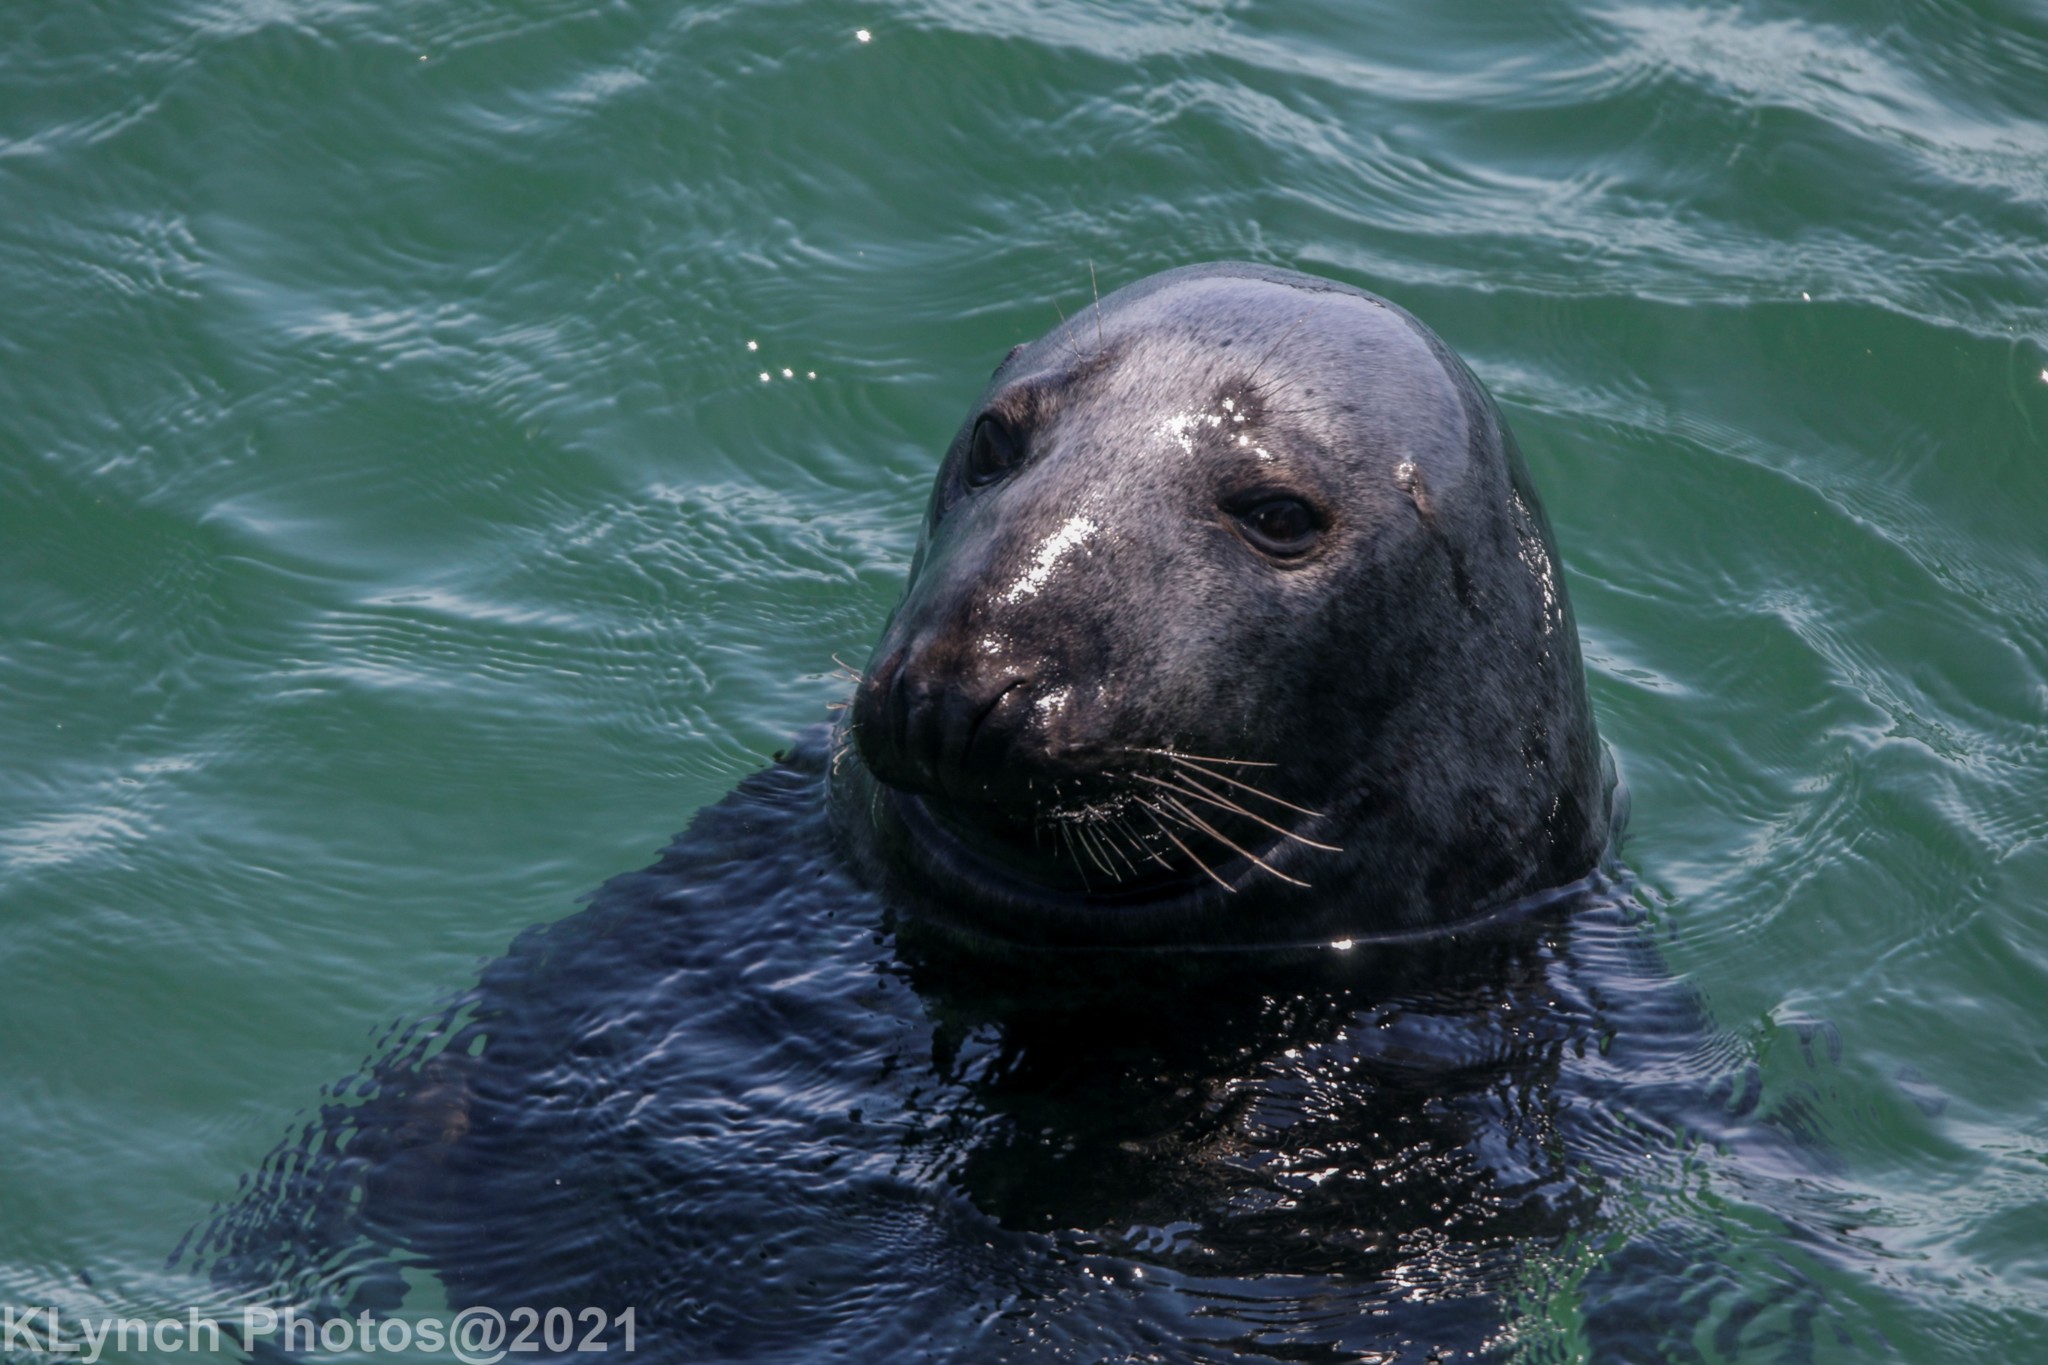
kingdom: Animalia
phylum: Chordata
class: Mammalia
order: Carnivora
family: Phocidae
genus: Halichoerus
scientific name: Halichoerus grypus
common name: Grey seal
